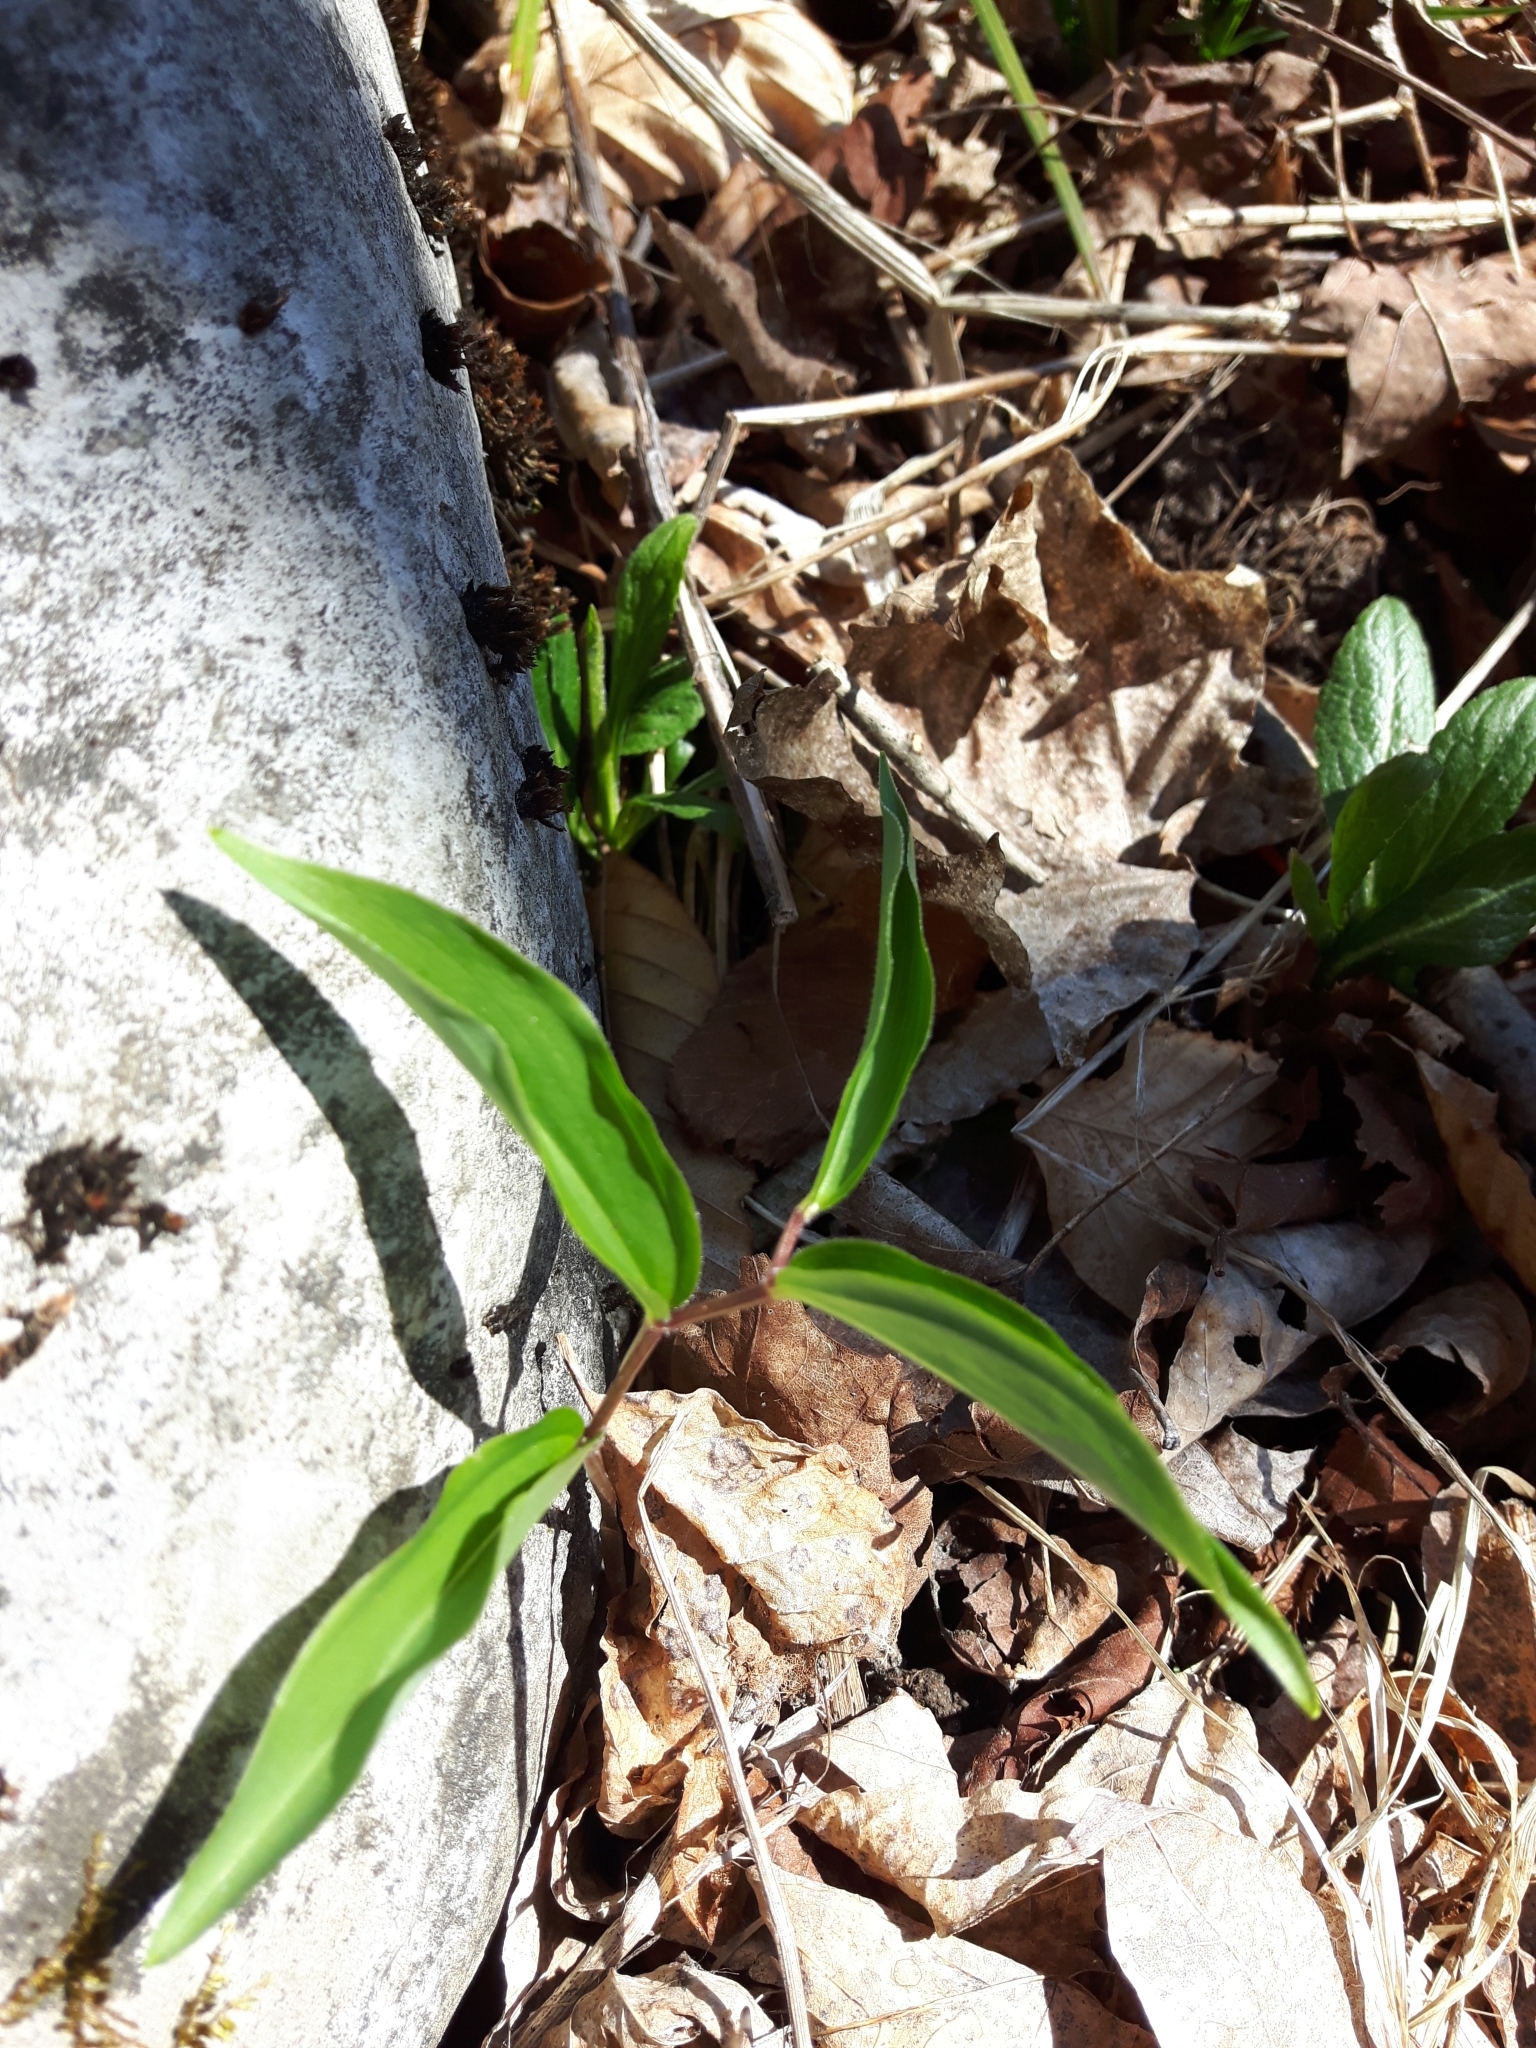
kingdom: Plantae
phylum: Tracheophyta
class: Liliopsida
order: Asparagales
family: Asparagaceae
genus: Maianthemum
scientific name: Maianthemum racemosum
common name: False spikenard
